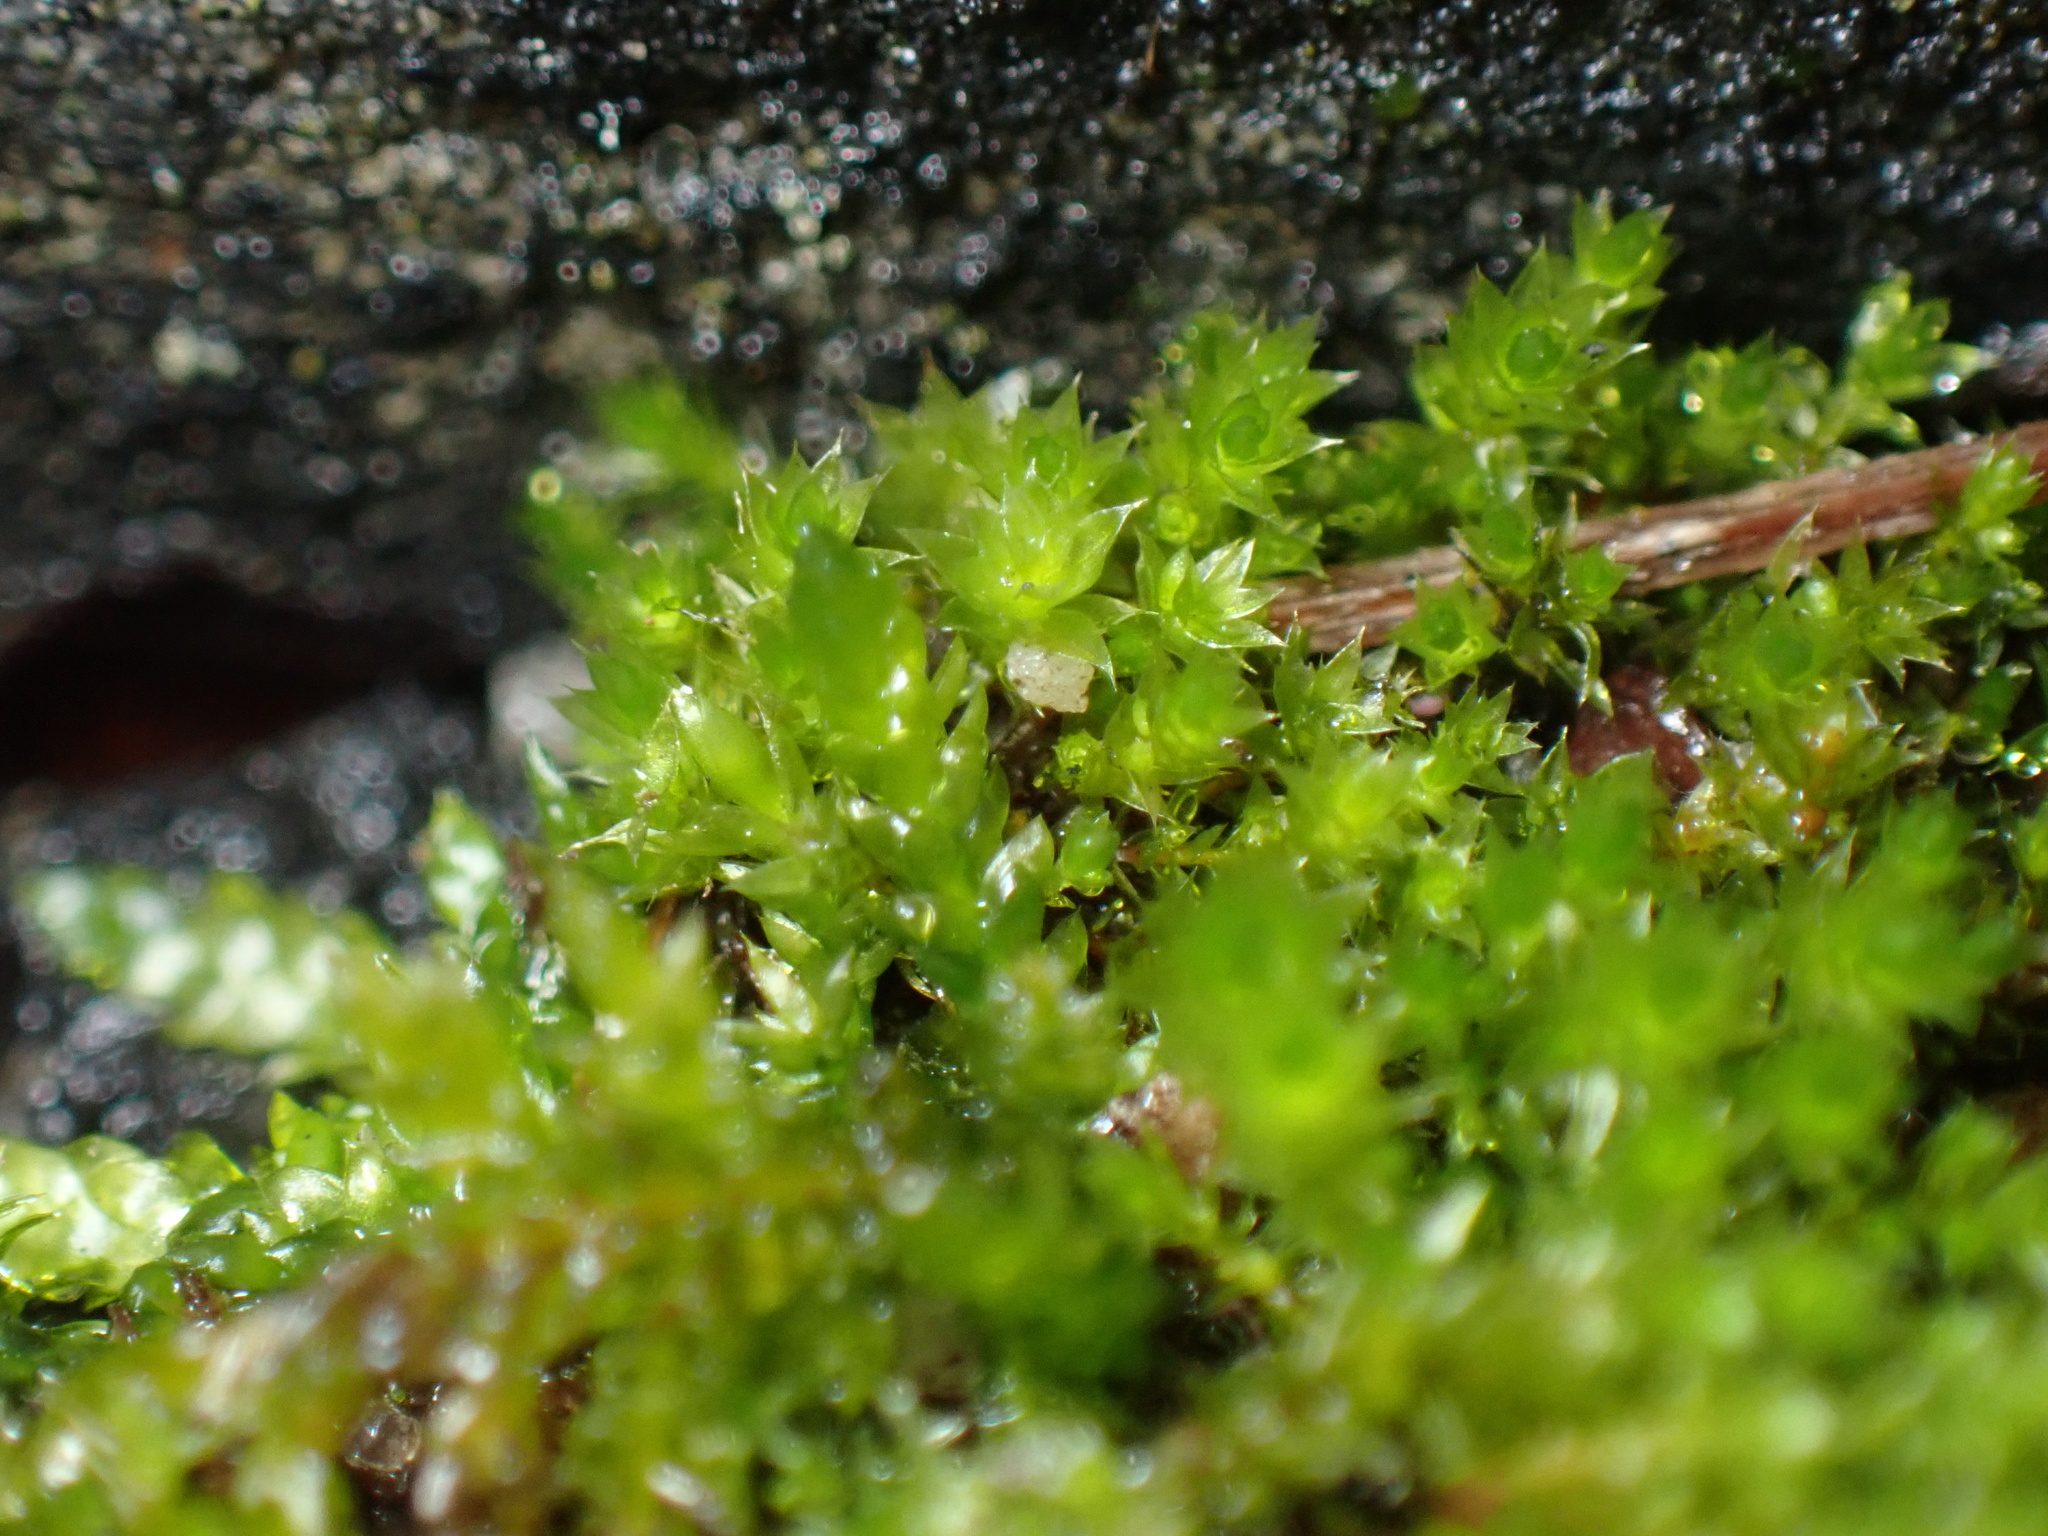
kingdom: Plantae
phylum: Bryophyta
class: Bryopsida
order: Bryales
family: Bryaceae
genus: Rosulabryum
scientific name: Rosulabryum capillare
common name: Capillary thread-moss
